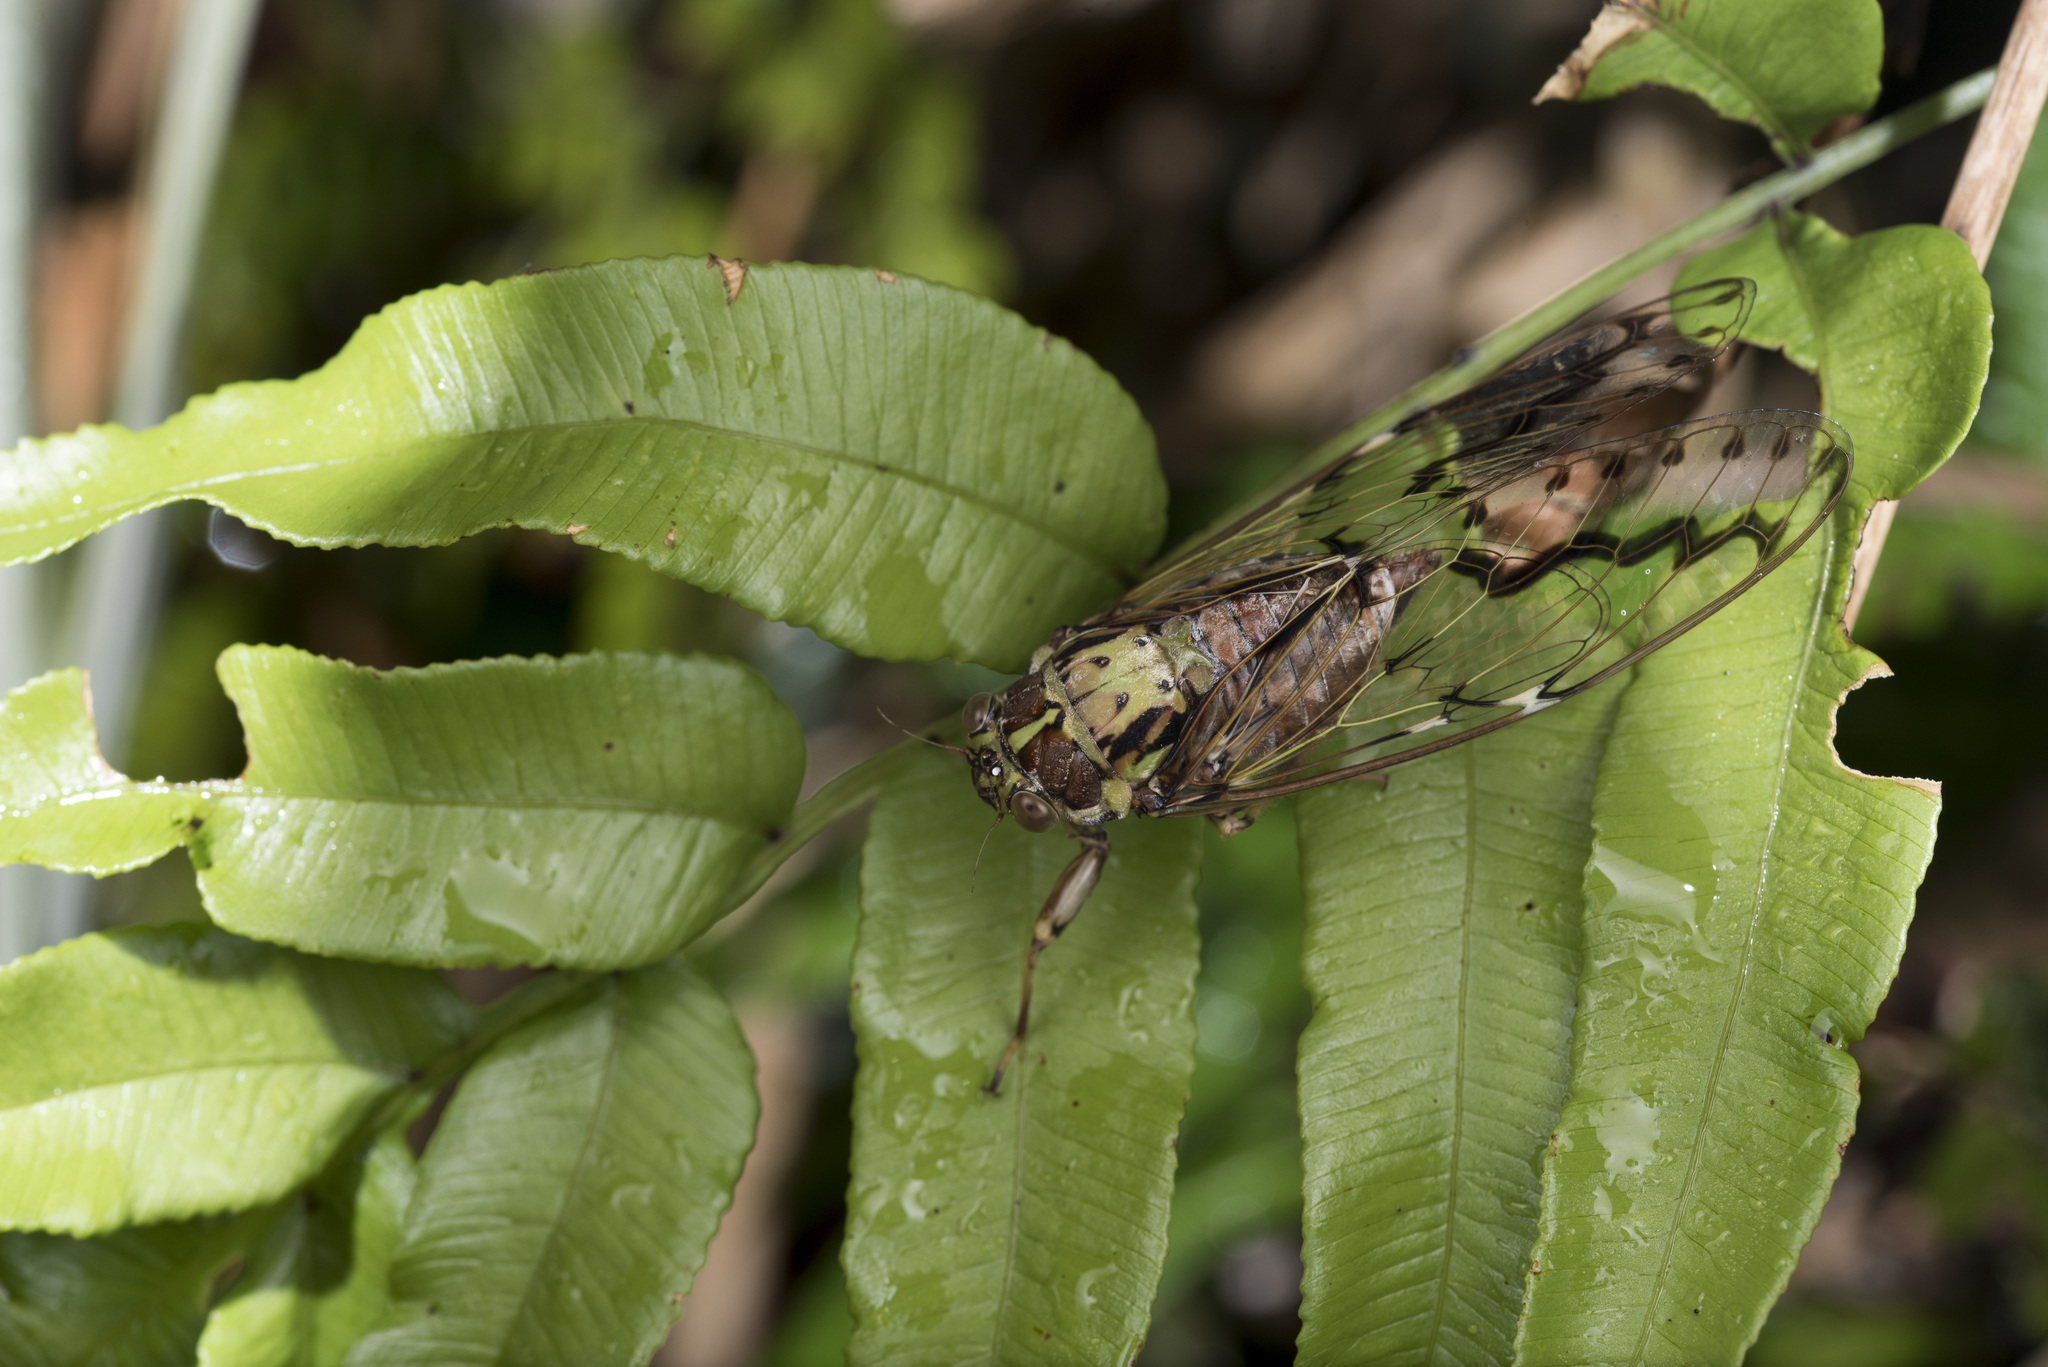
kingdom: Animalia
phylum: Arthropoda
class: Insecta
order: Hemiptera
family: Cicadidae
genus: Tanna
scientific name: Tanna ornatipennis
